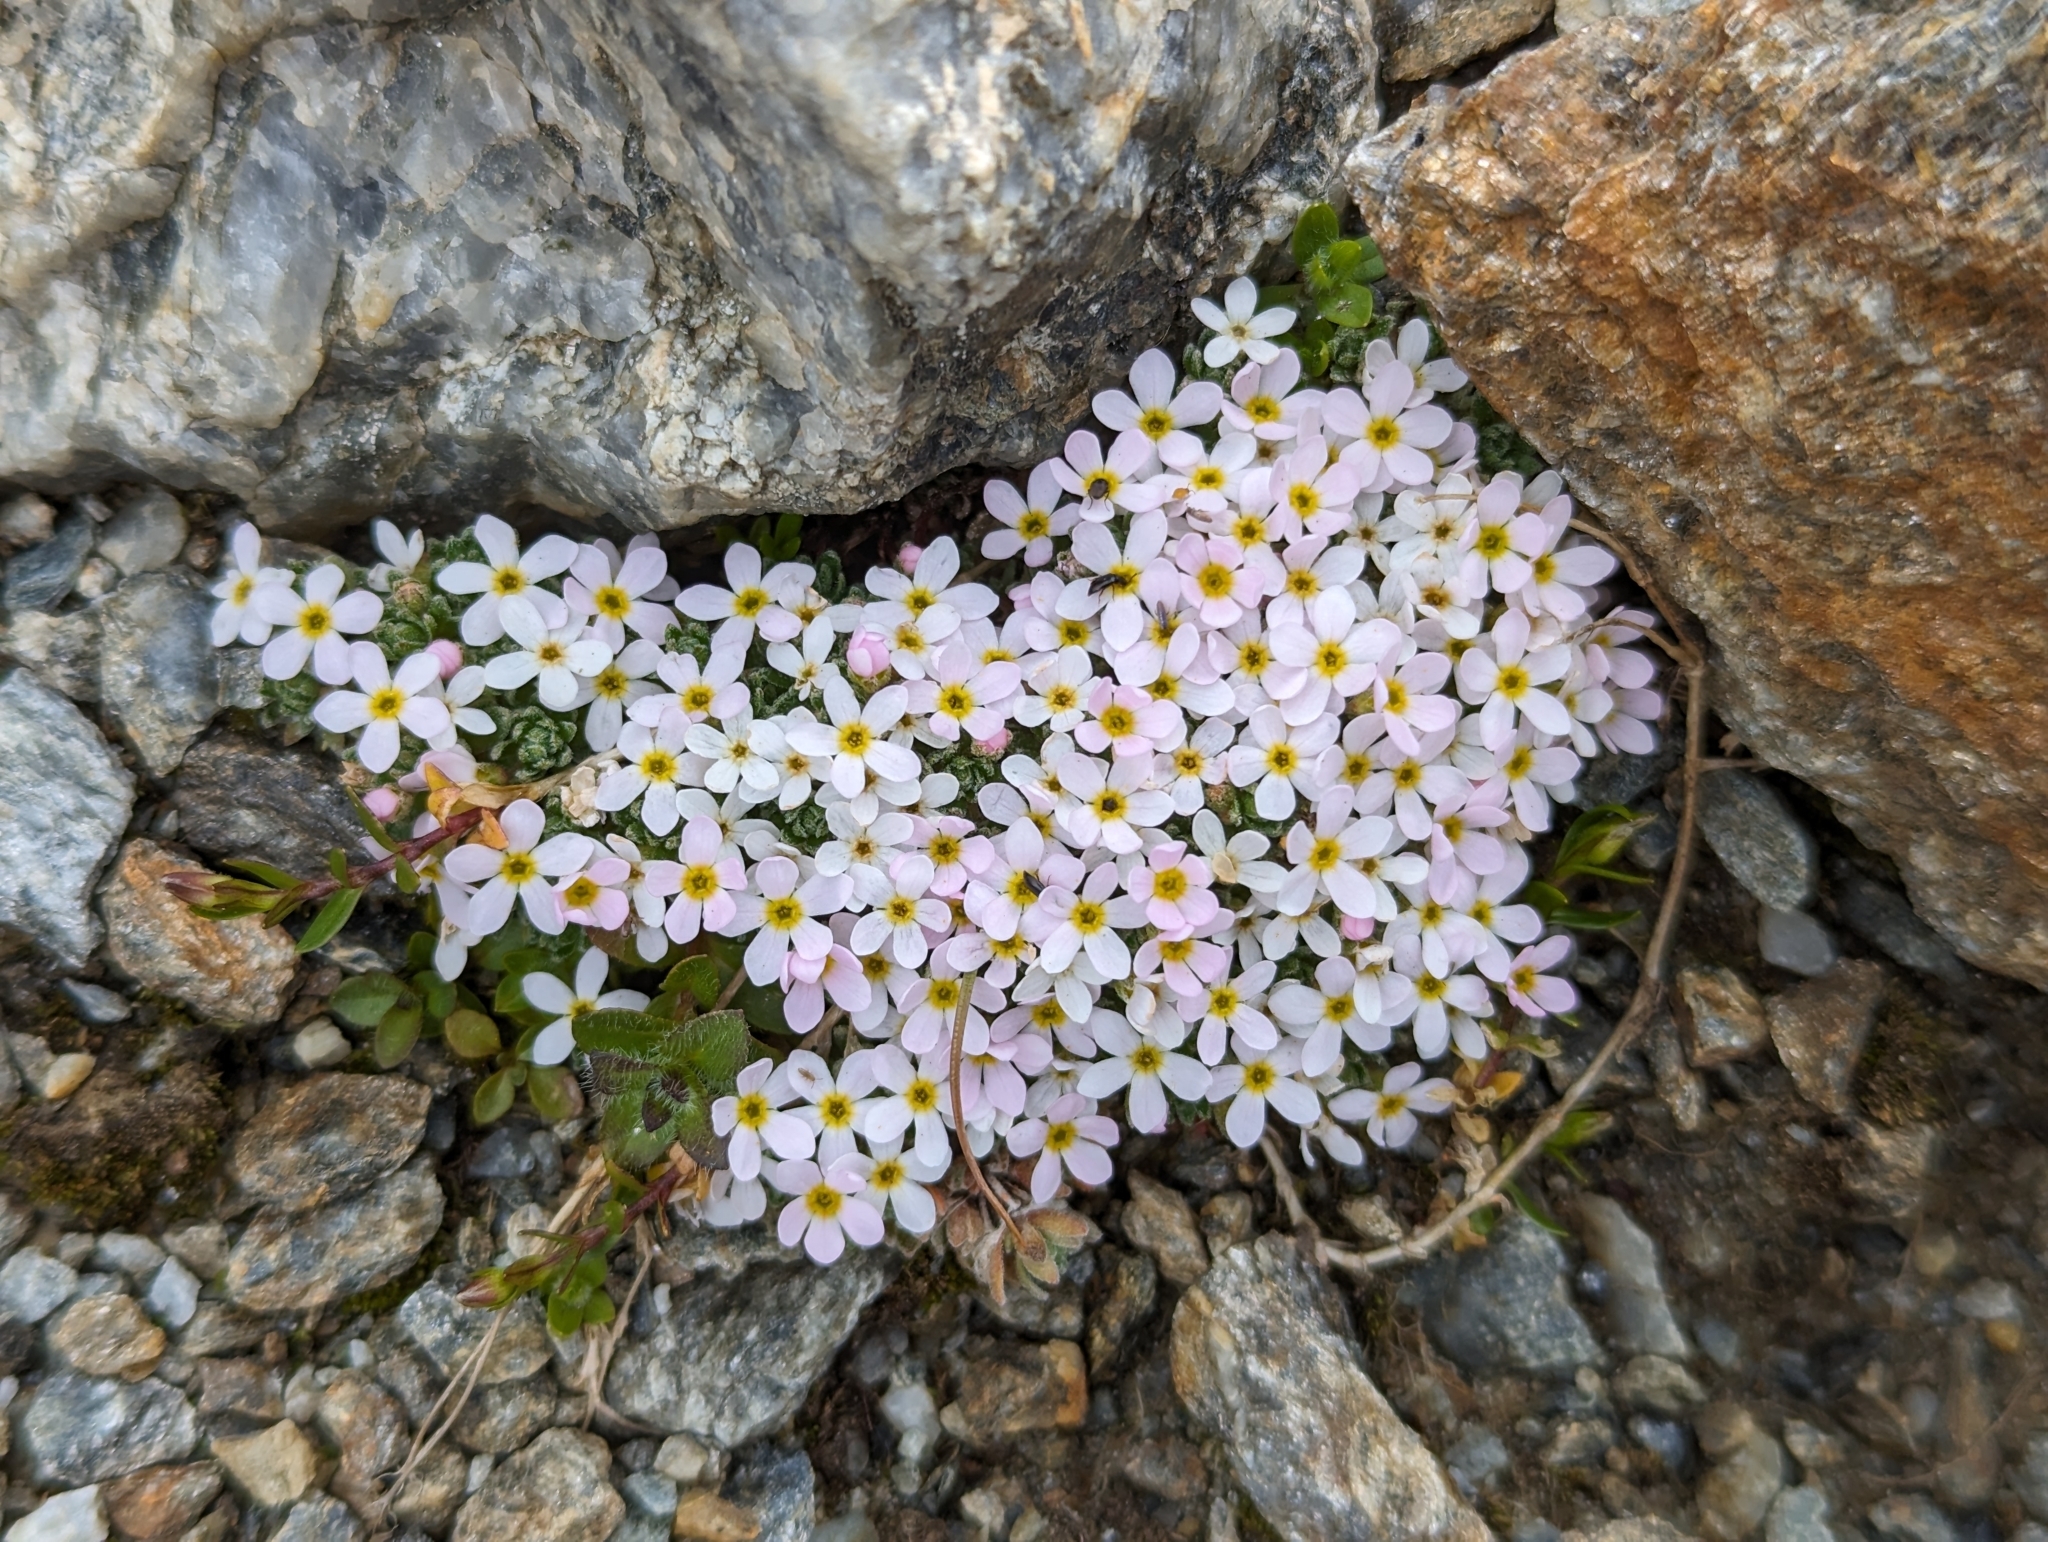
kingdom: Plantae
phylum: Tracheophyta
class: Magnoliopsida
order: Ericales
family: Primulaceae
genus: Androsace
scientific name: Androsace alpina
